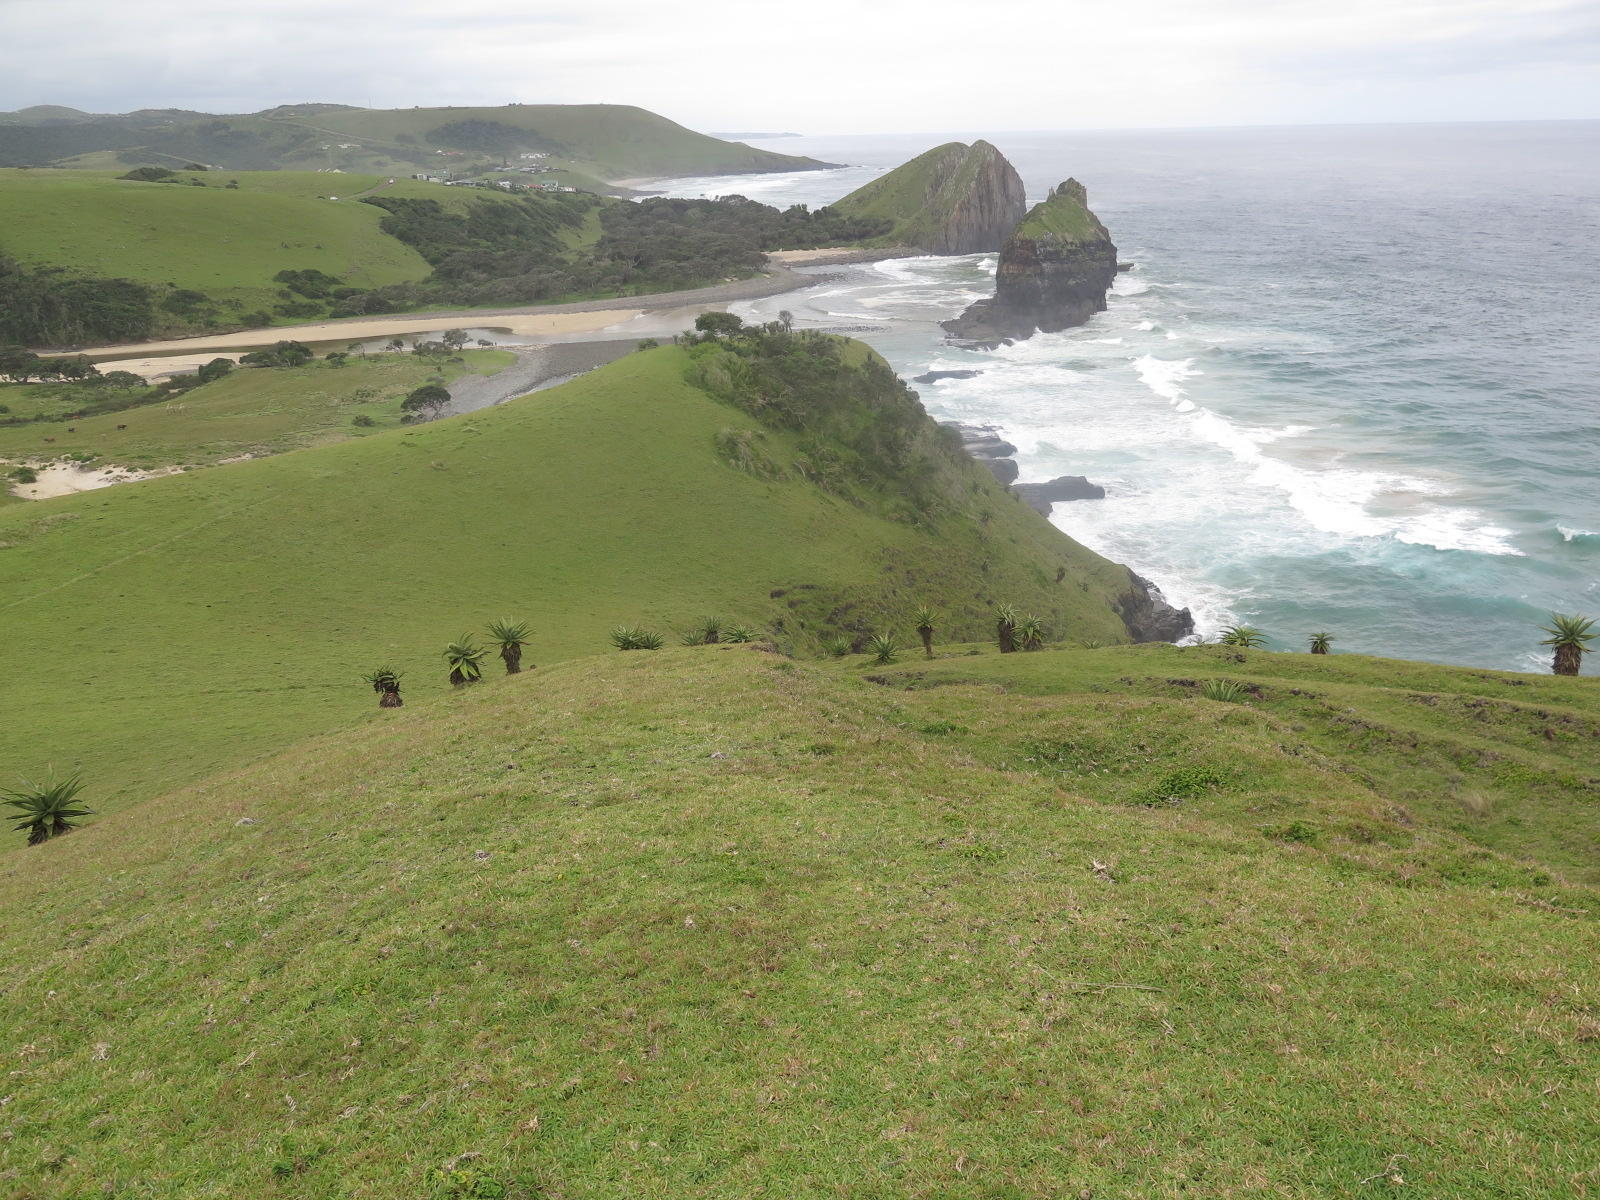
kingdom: Plantae
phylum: Tracheophyta
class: Liliopsida
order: Asparagales
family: Asphodelaceae
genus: Aloe
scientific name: Aloe ferox
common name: Bitter aloe
